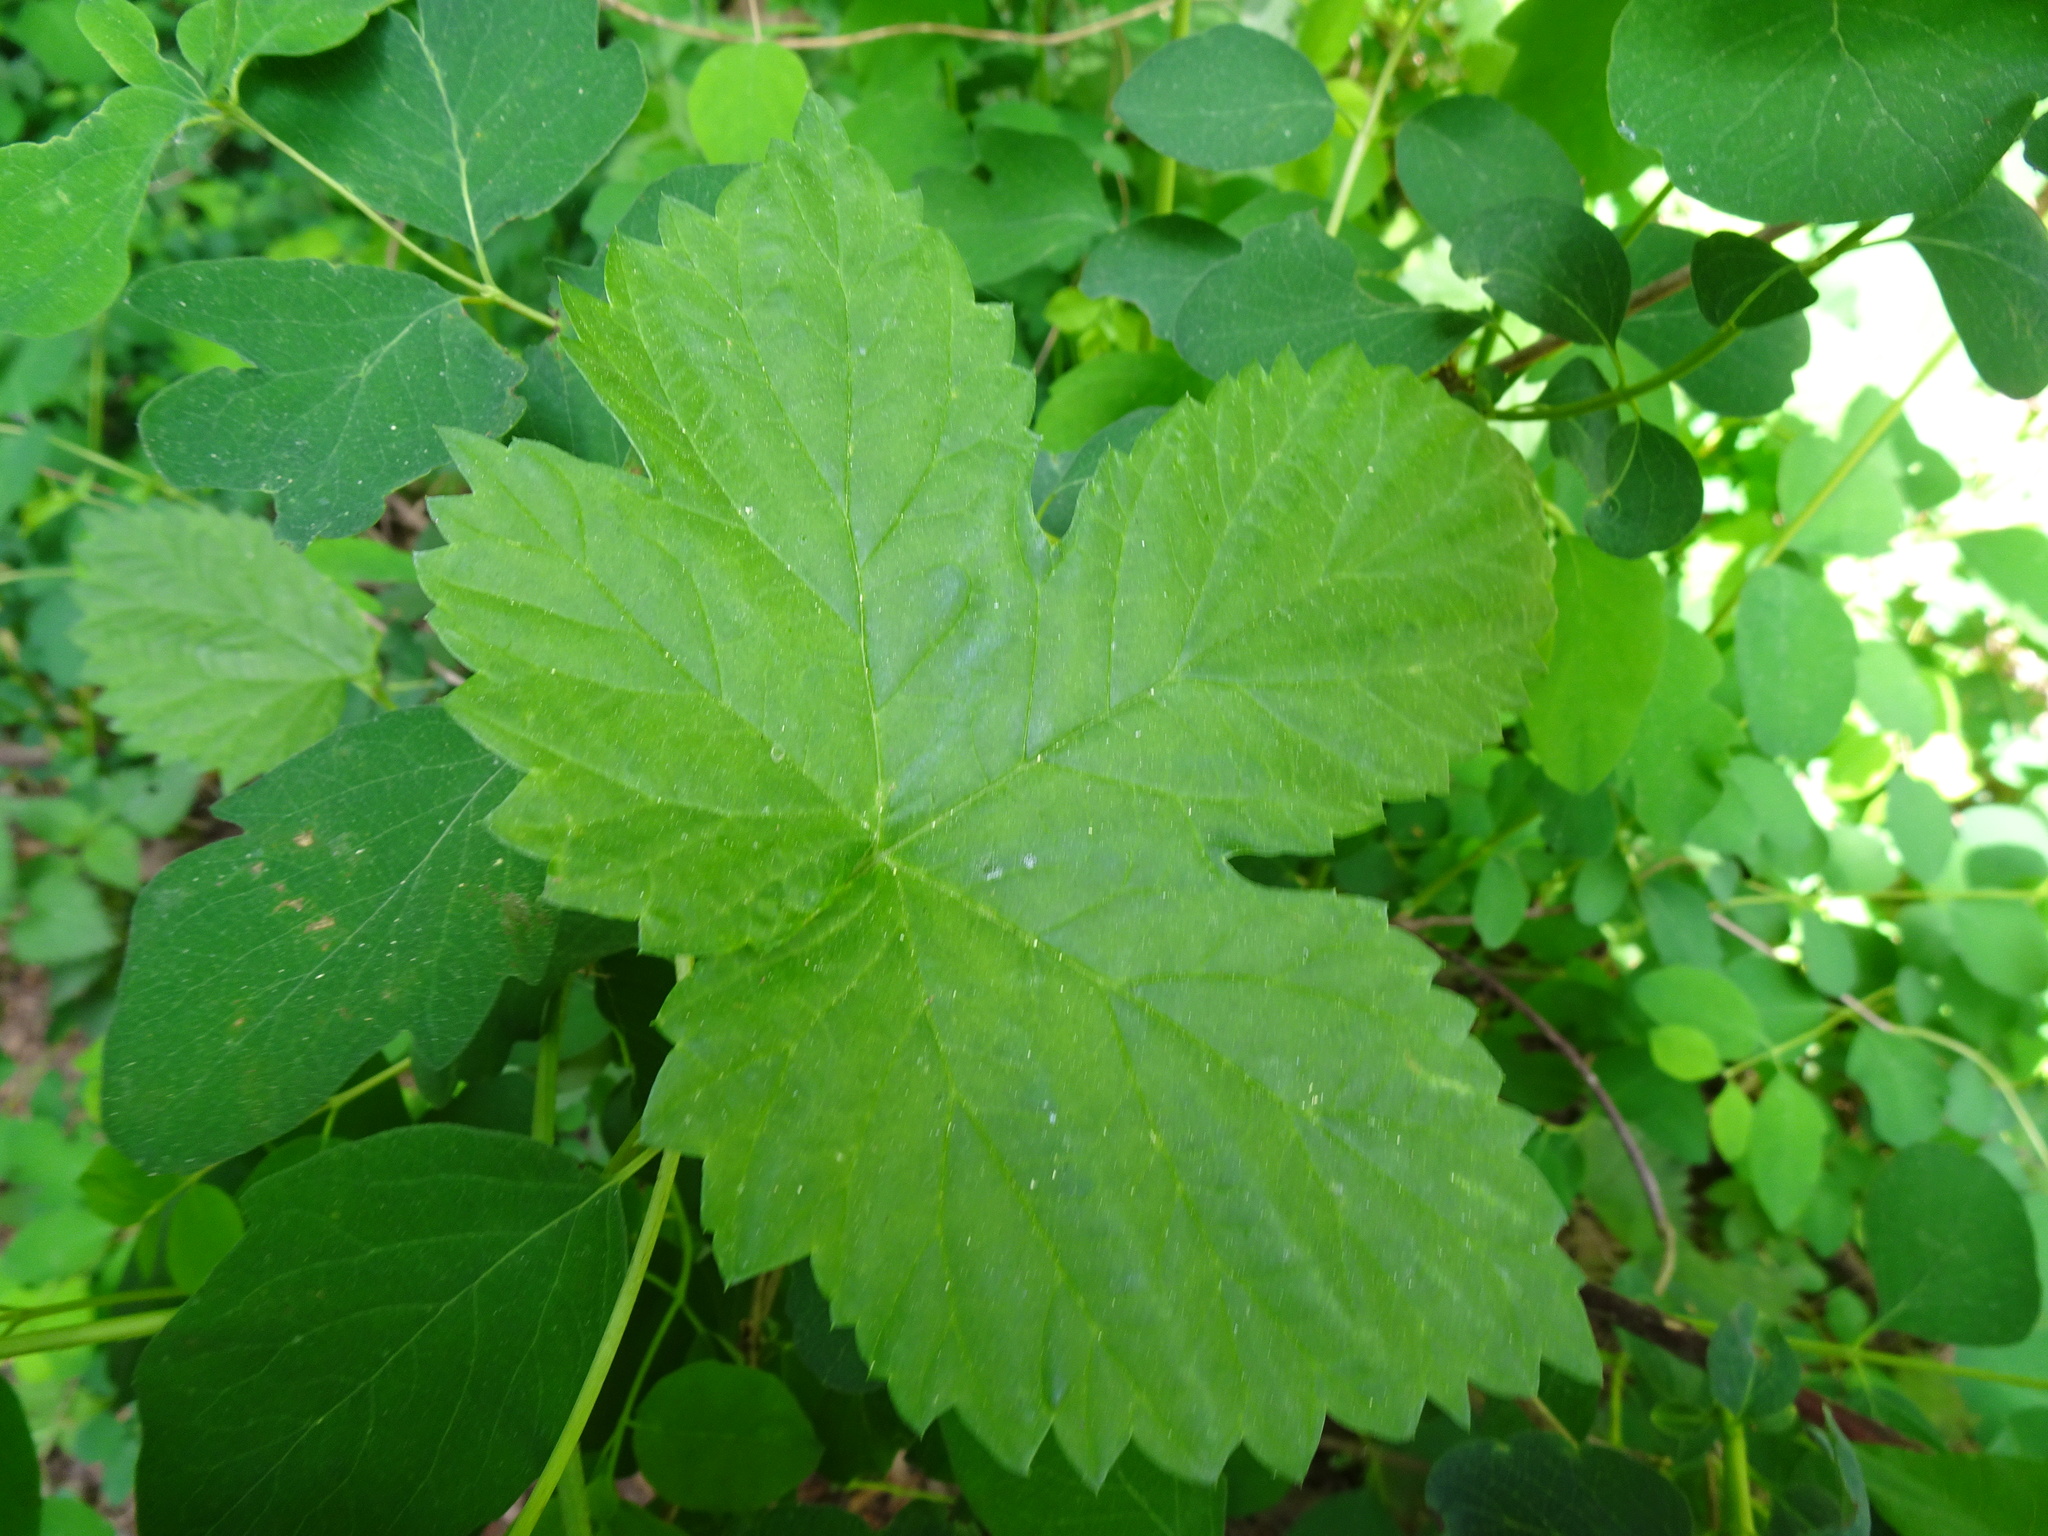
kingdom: Plantae
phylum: Tracheophyta
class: Magnoliopsida
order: Rosales
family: Cannabaceae
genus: Humulus
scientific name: Humulus lupulus
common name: Hop
